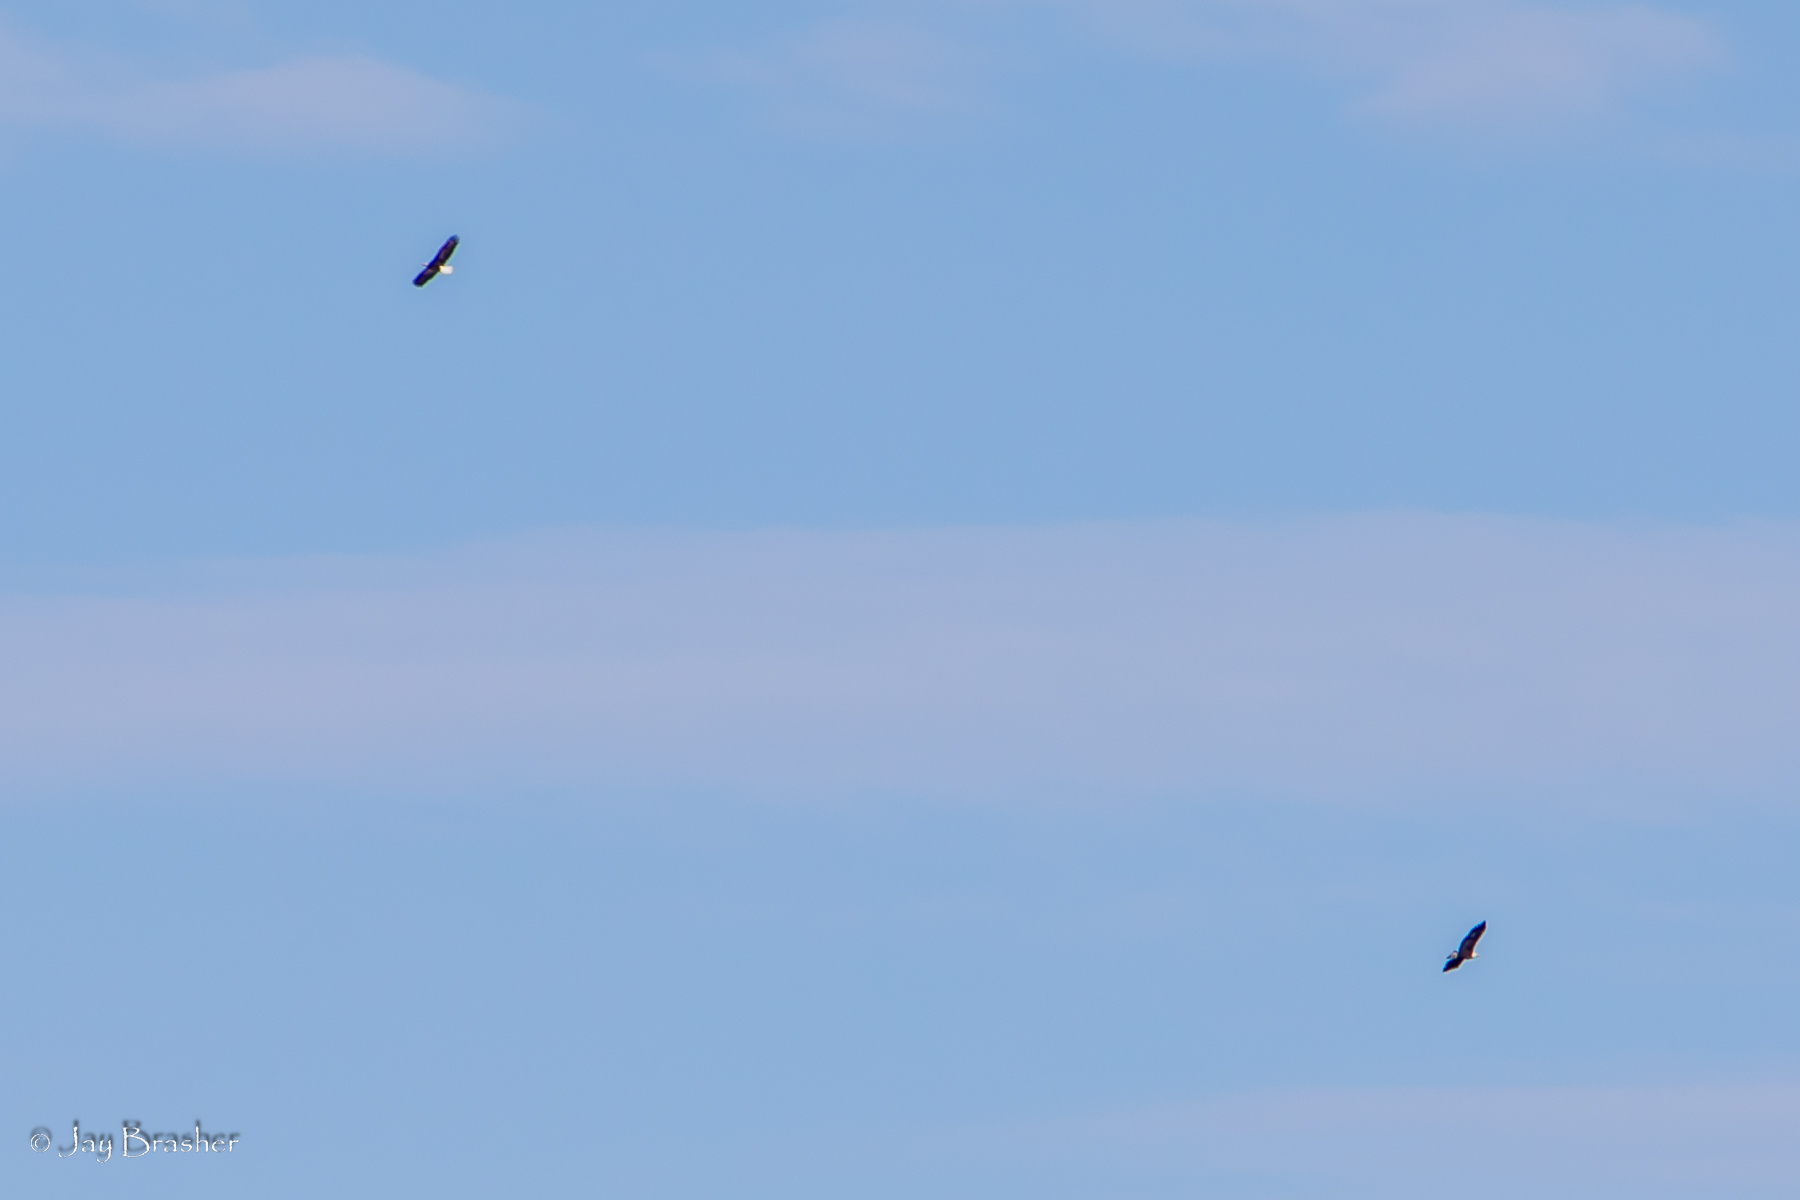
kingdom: Animalia
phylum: Chordata
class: Aves
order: Accipitriformes
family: Accipitridae
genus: Haliaeetus
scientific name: Haliaeetus leucocephalus
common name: Bald eagle
